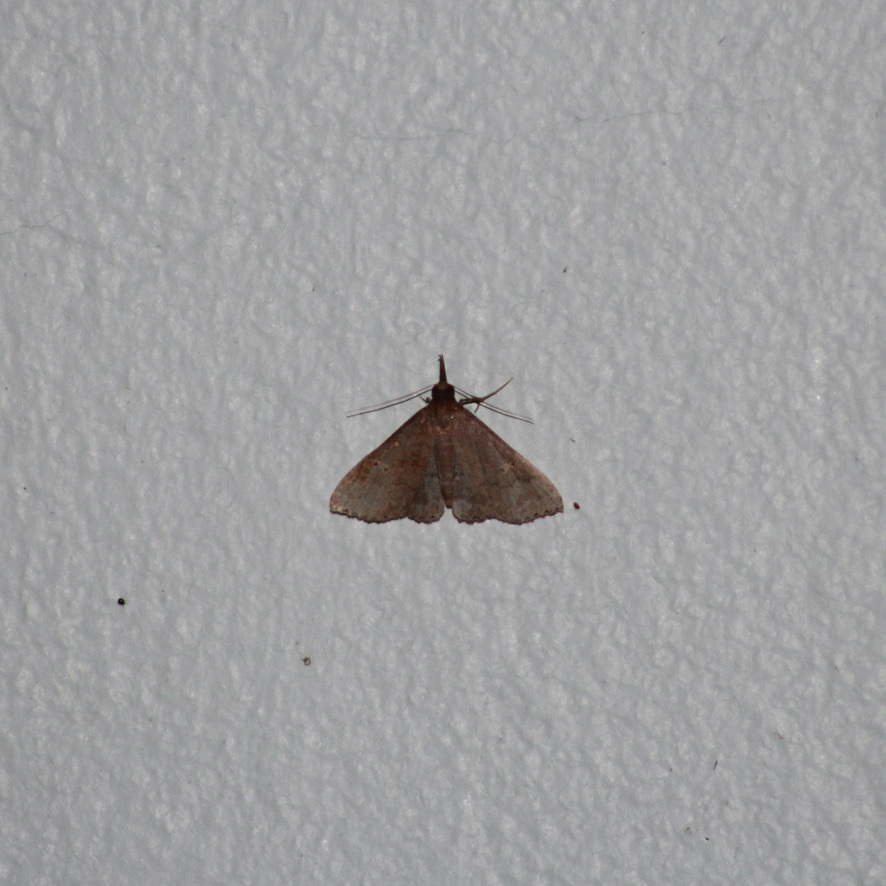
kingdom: Animalia
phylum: Arthropoda
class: Insecta
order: Lepidoptera
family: Erebidae
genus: Physula
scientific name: Physula migralis
